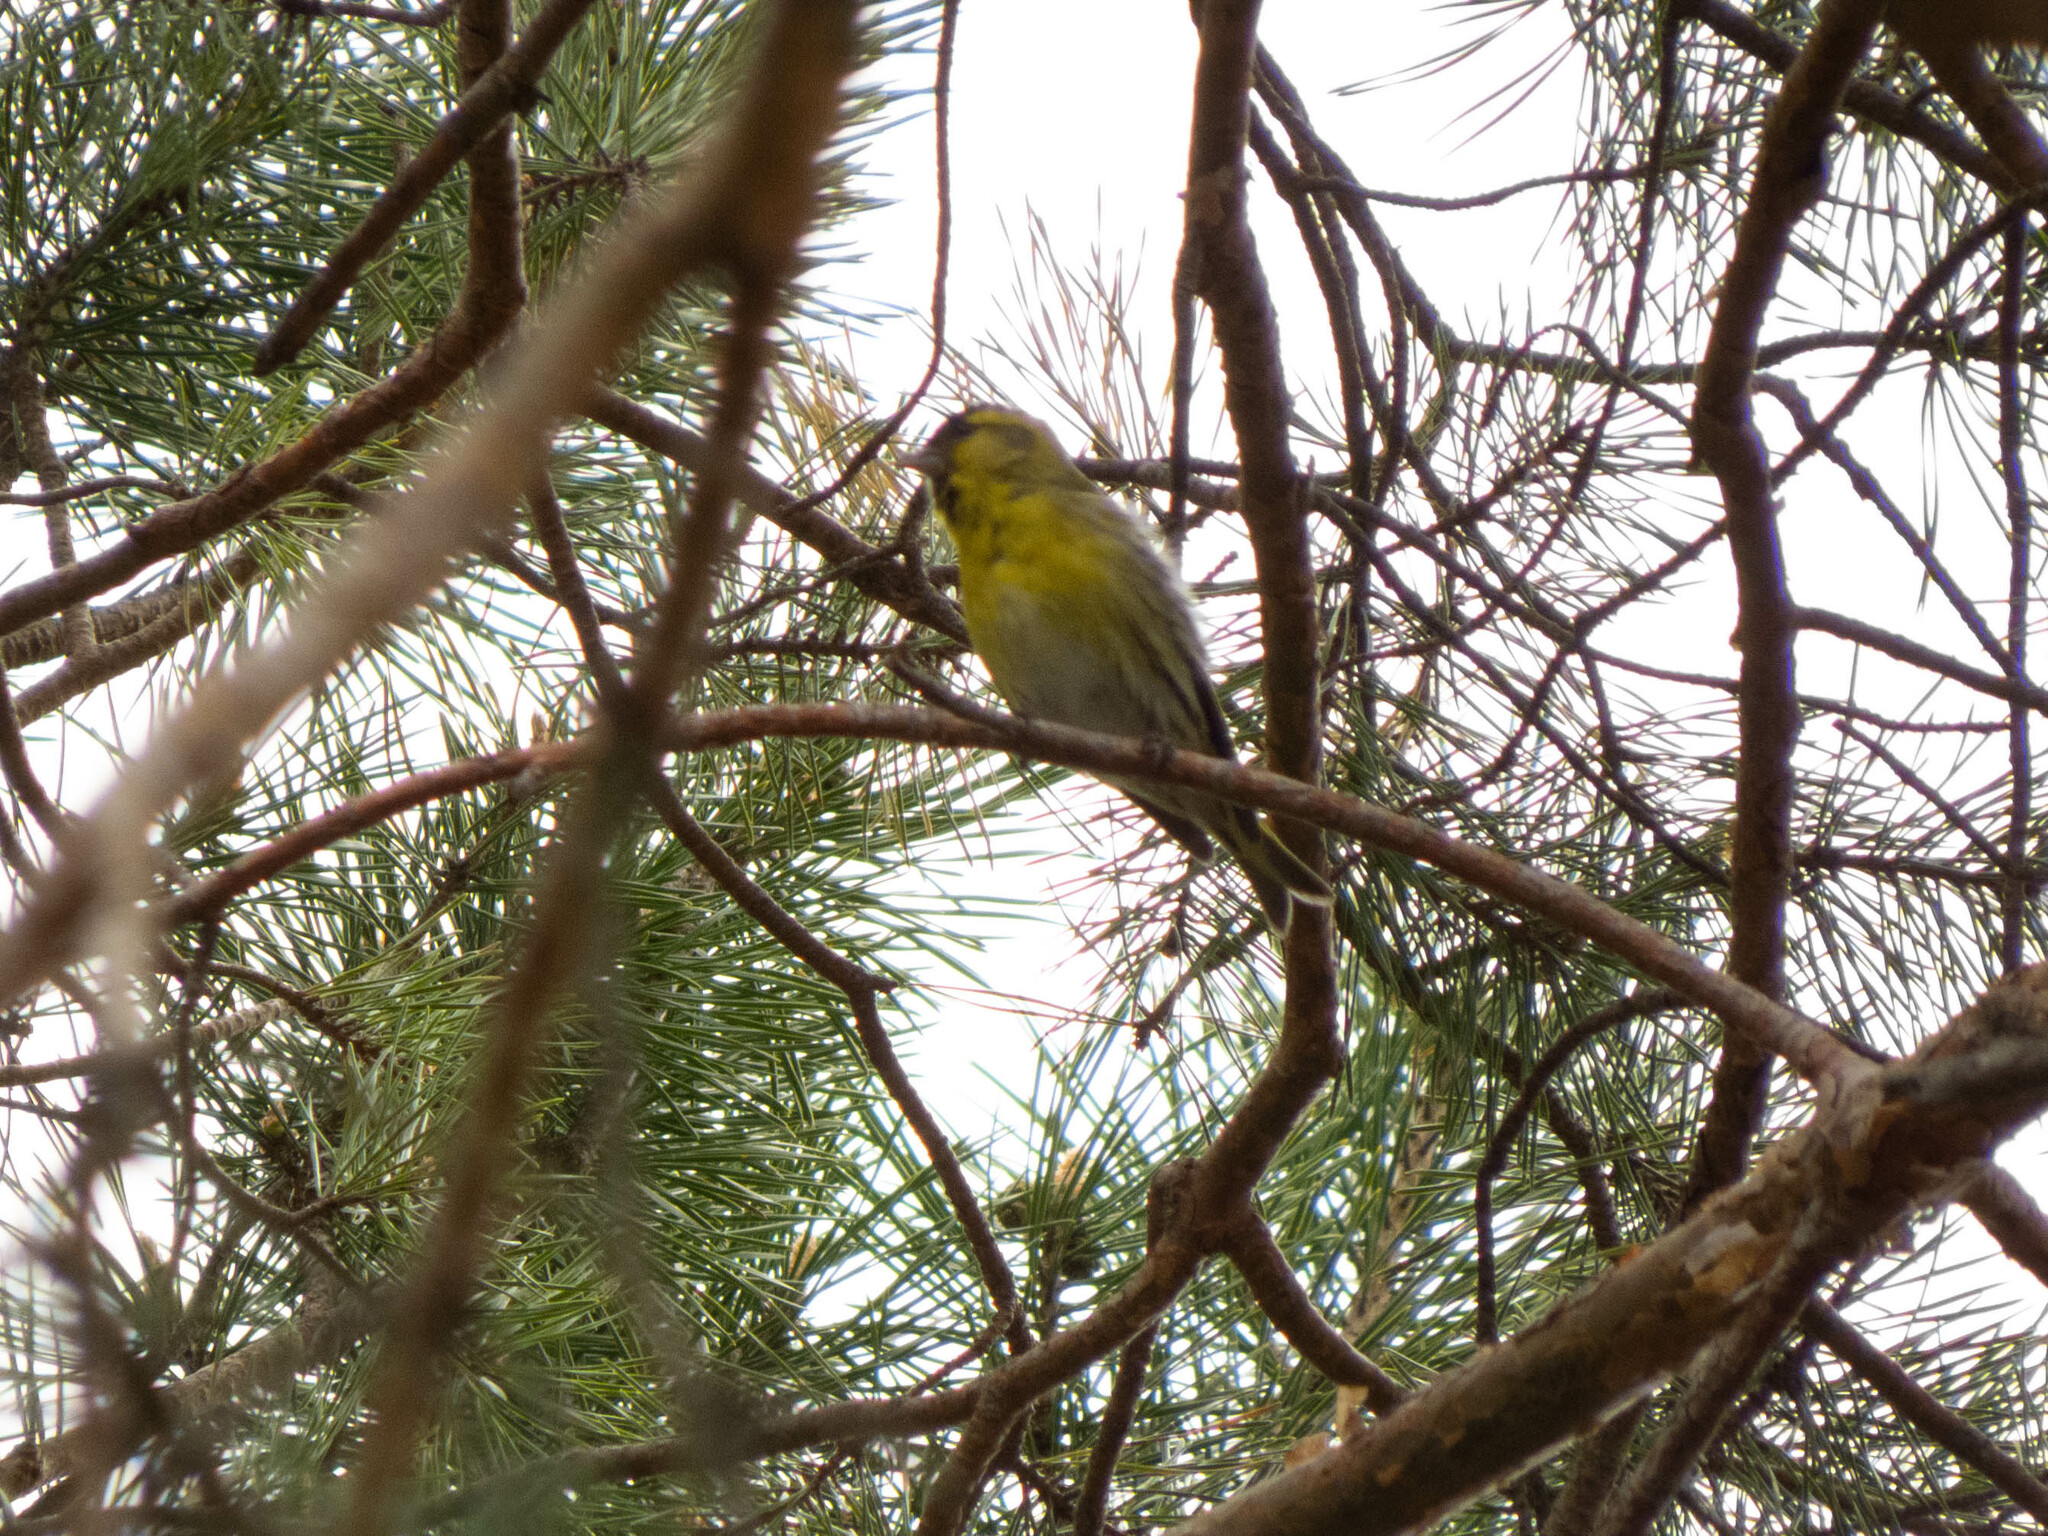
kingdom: Animalia
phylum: Chordata
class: Aves
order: Passeriformes
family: Fringillidae
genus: Spinus
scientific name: Spinus spinus
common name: Eurasian siskin
